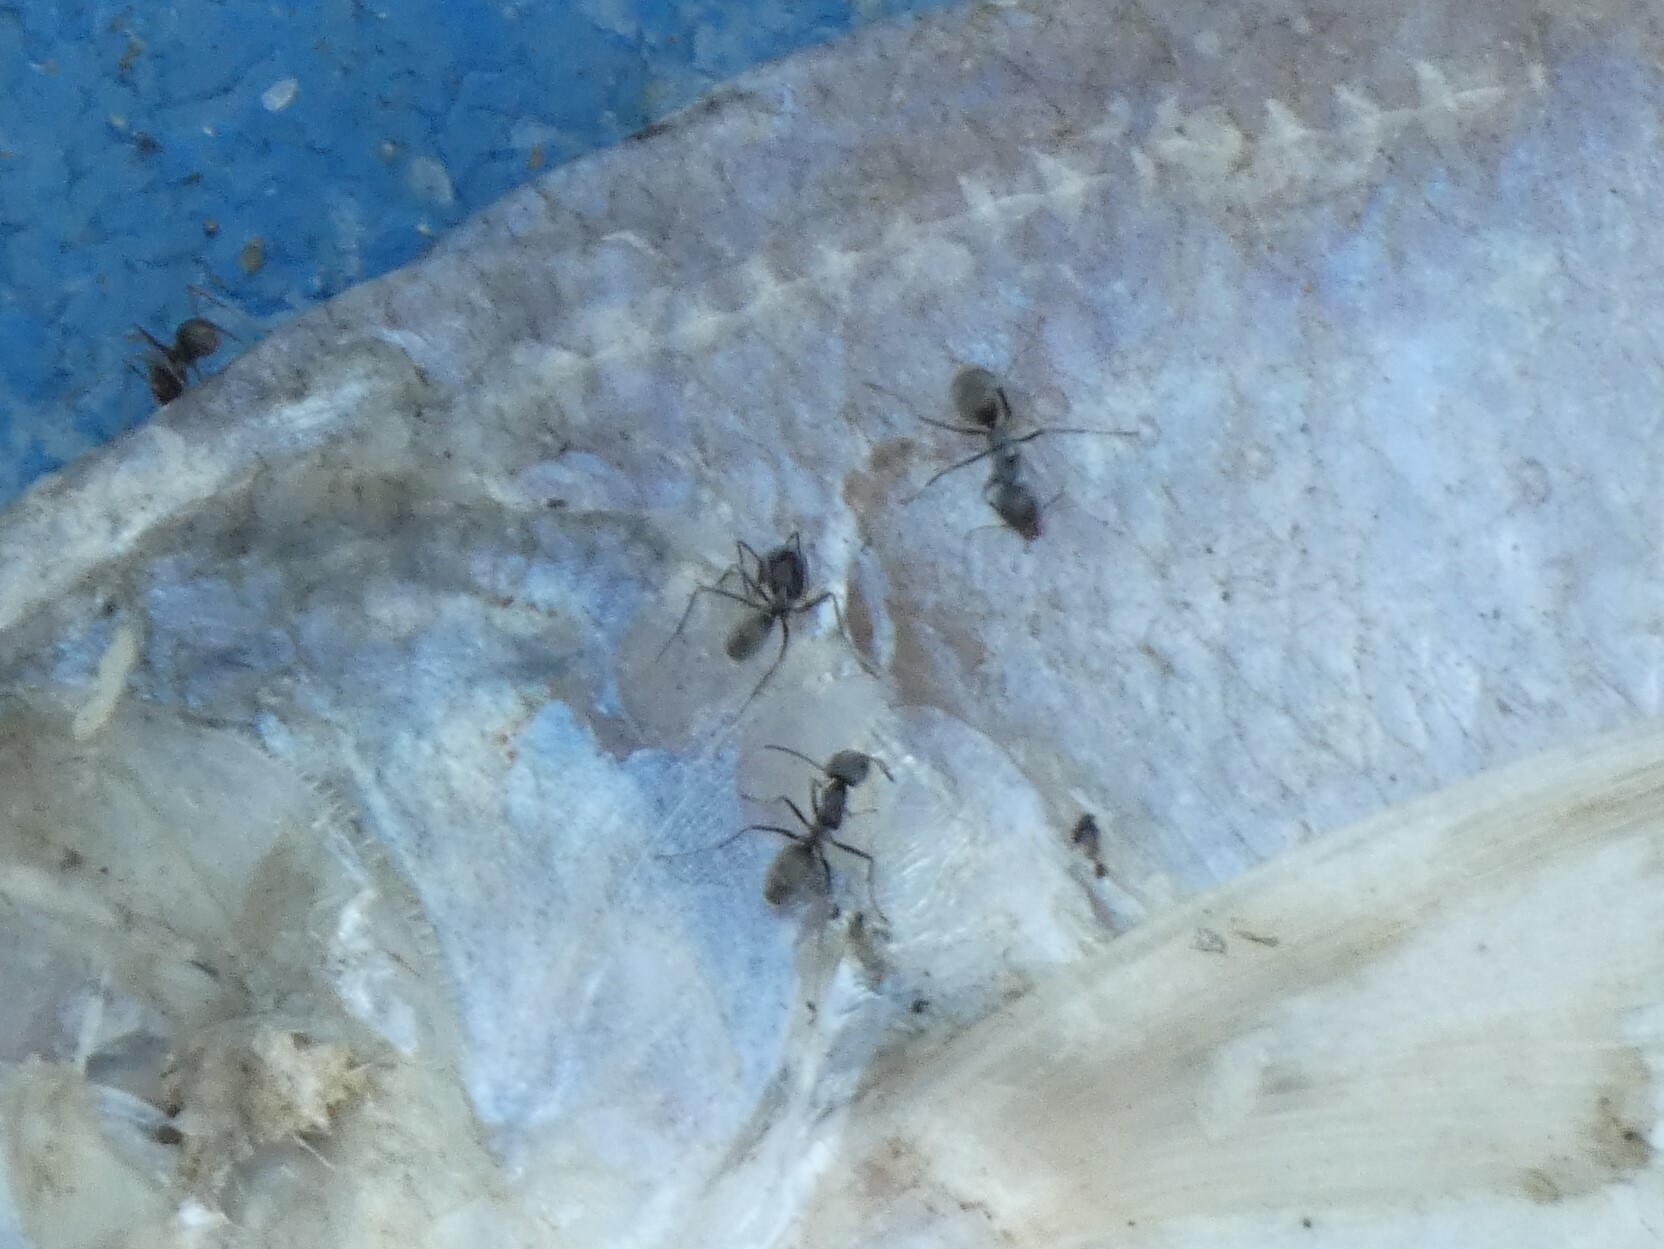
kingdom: Animalia
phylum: Arthropoda
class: Insecta
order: Hymenoptera
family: Formicidae
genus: Iridomyrmex
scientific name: Iridomyrmex anceps
